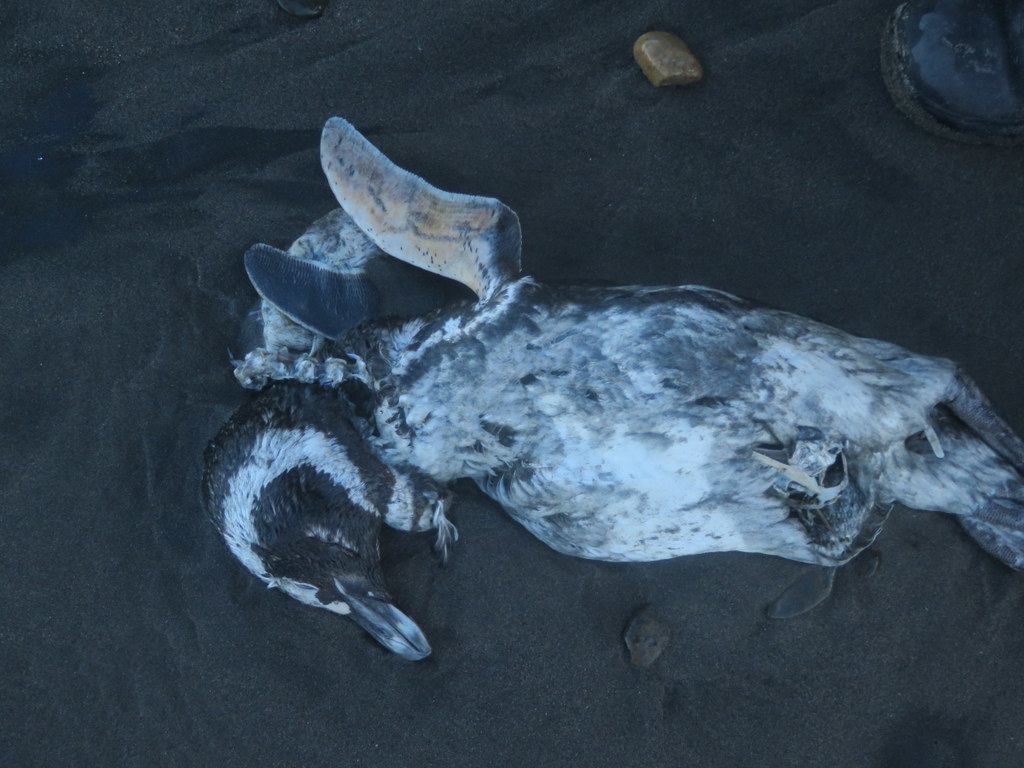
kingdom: Animalia
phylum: Chordata
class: Aves
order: Sphenisciformes
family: Spheniscidae
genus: Spheniscus
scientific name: Spheniscus magellanicus
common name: Magellanic penguin
